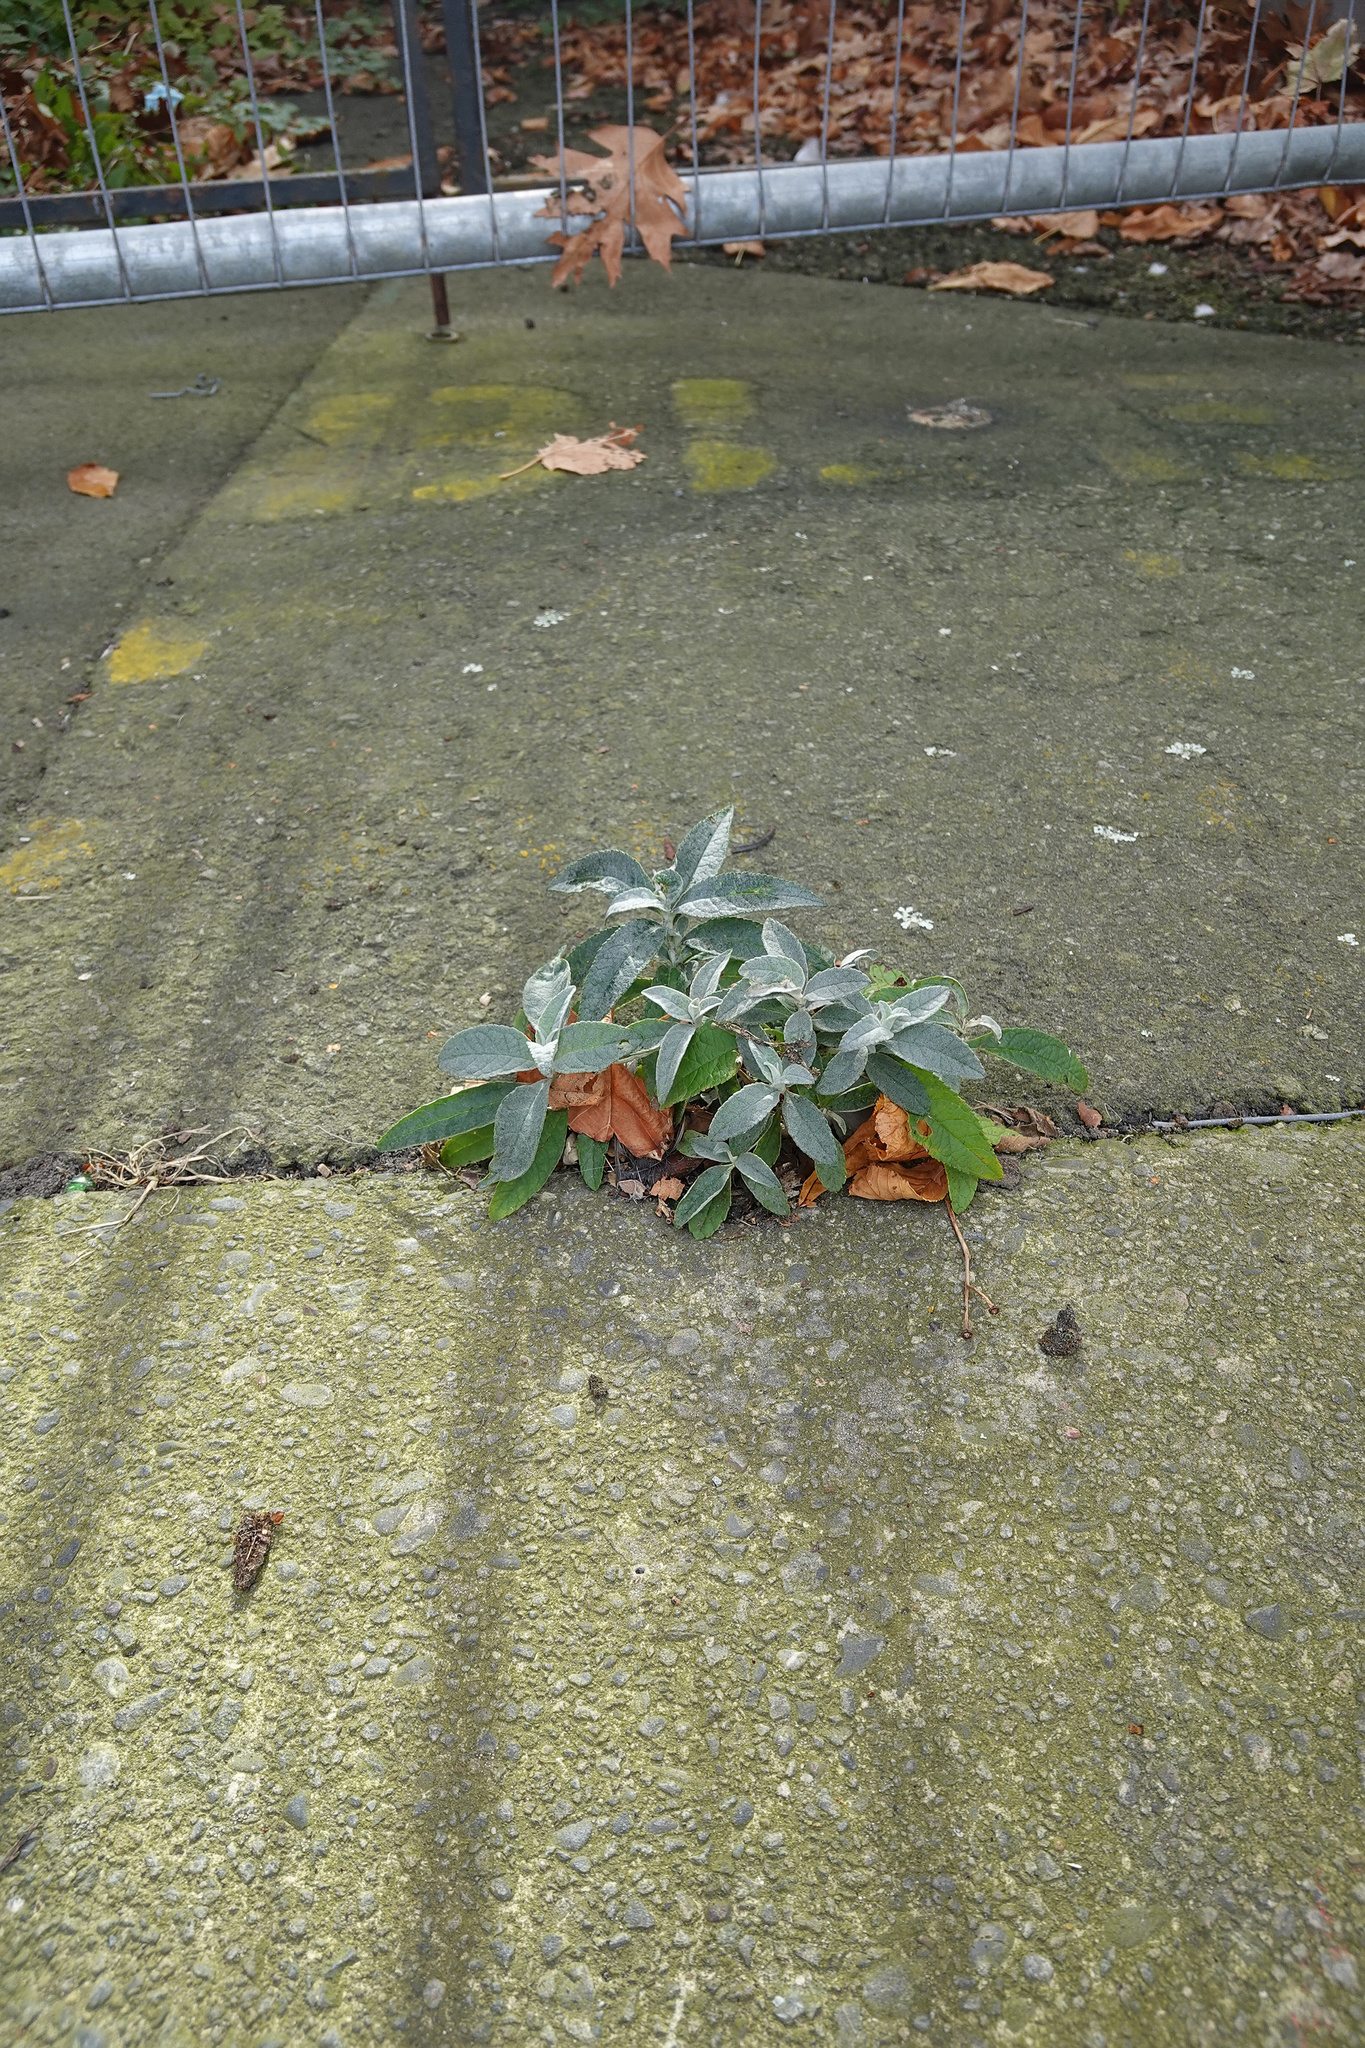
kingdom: Plantae
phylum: Tracheophyta
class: Magnoliopsida
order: Lamiales
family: Scrophulariaceae
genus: Buddleja
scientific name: Buddleja davidii
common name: Butterfly-bush
